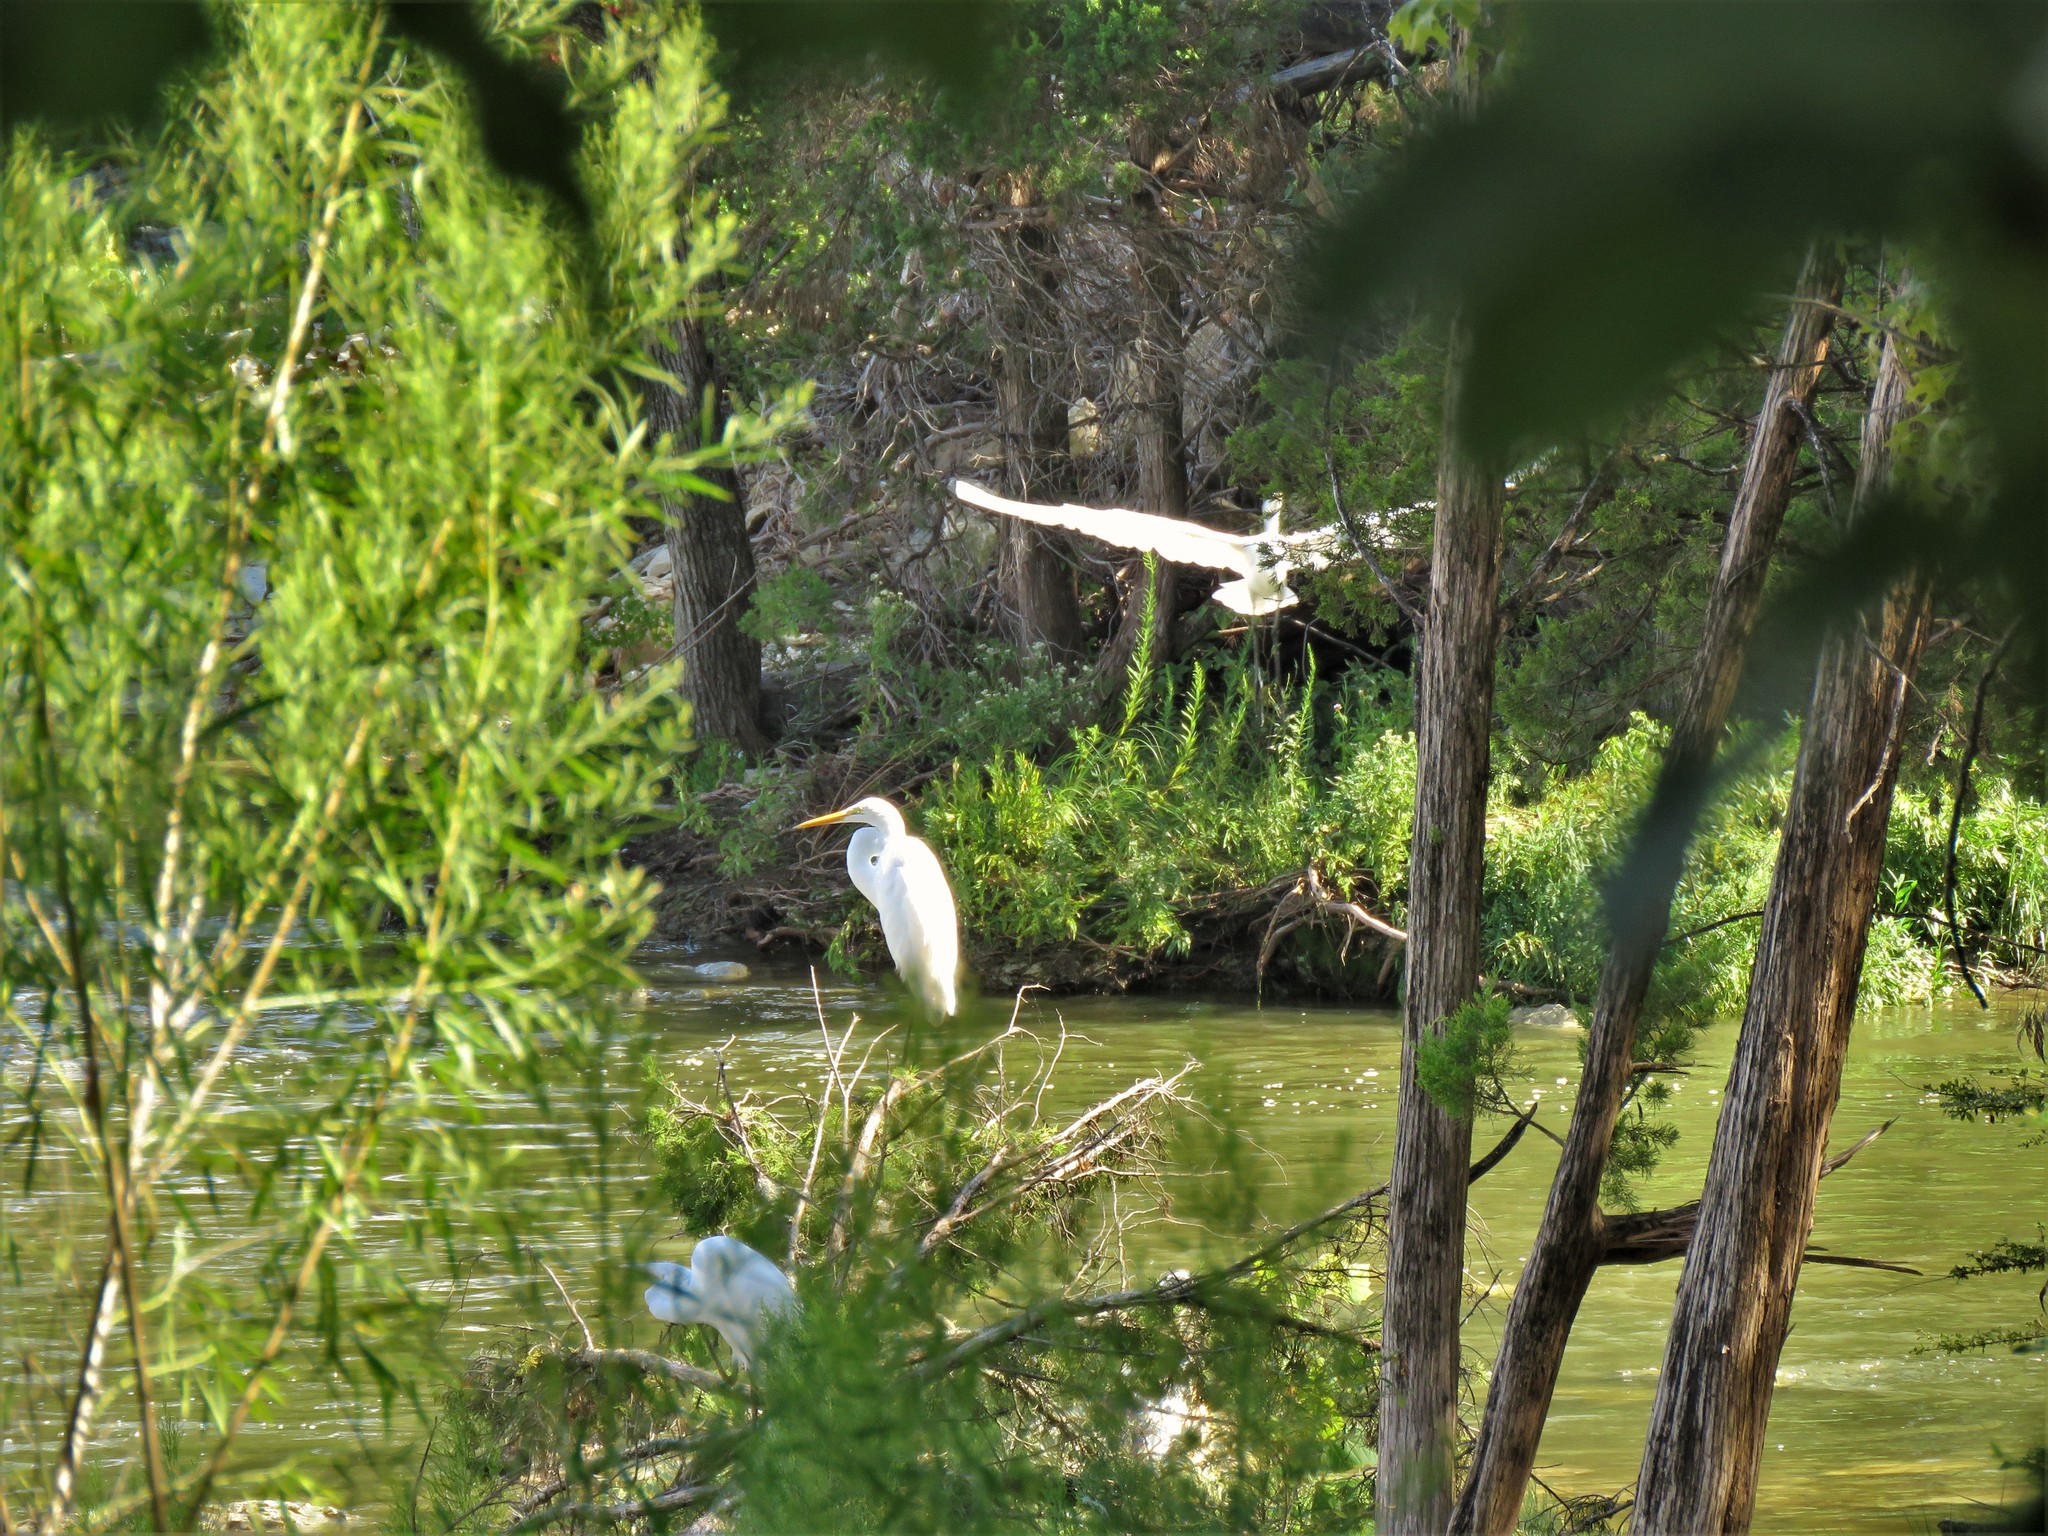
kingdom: Animalia
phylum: Chordata
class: Aves
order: Pelecaniformes
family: Ardeidae
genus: Ardea
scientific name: Ardea alba
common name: Great egret
